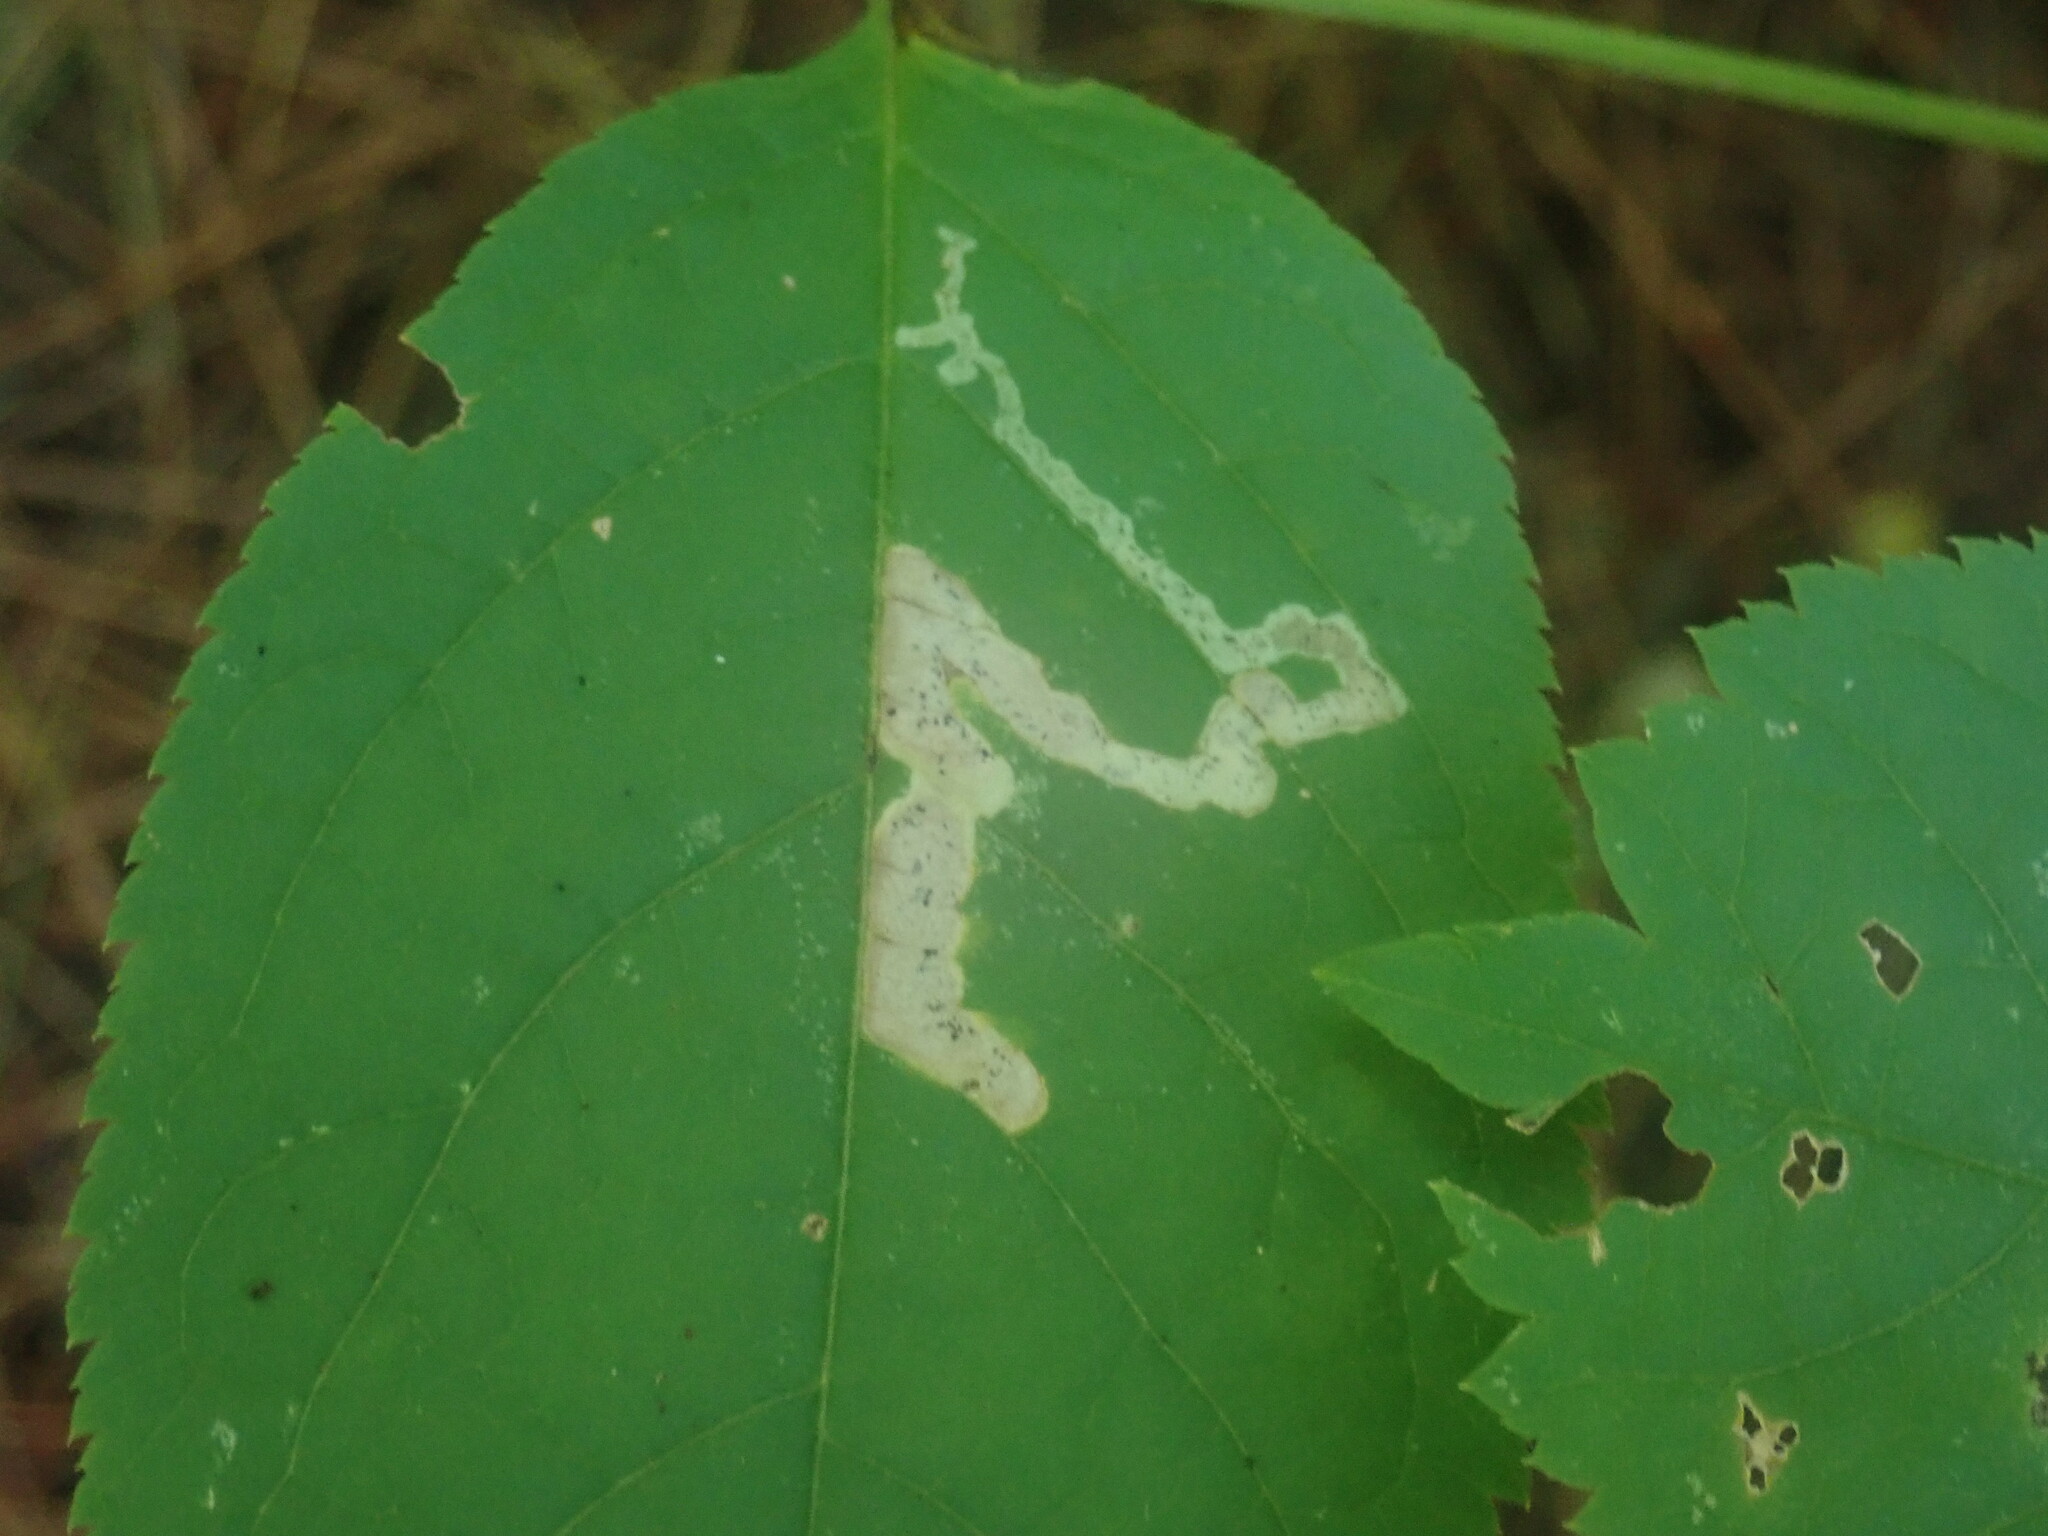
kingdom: Animalia
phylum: Arthropoda
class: Insecta
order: Diptera
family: Agromyzidae
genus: Phytomyza
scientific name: Phytomyza aralivora
